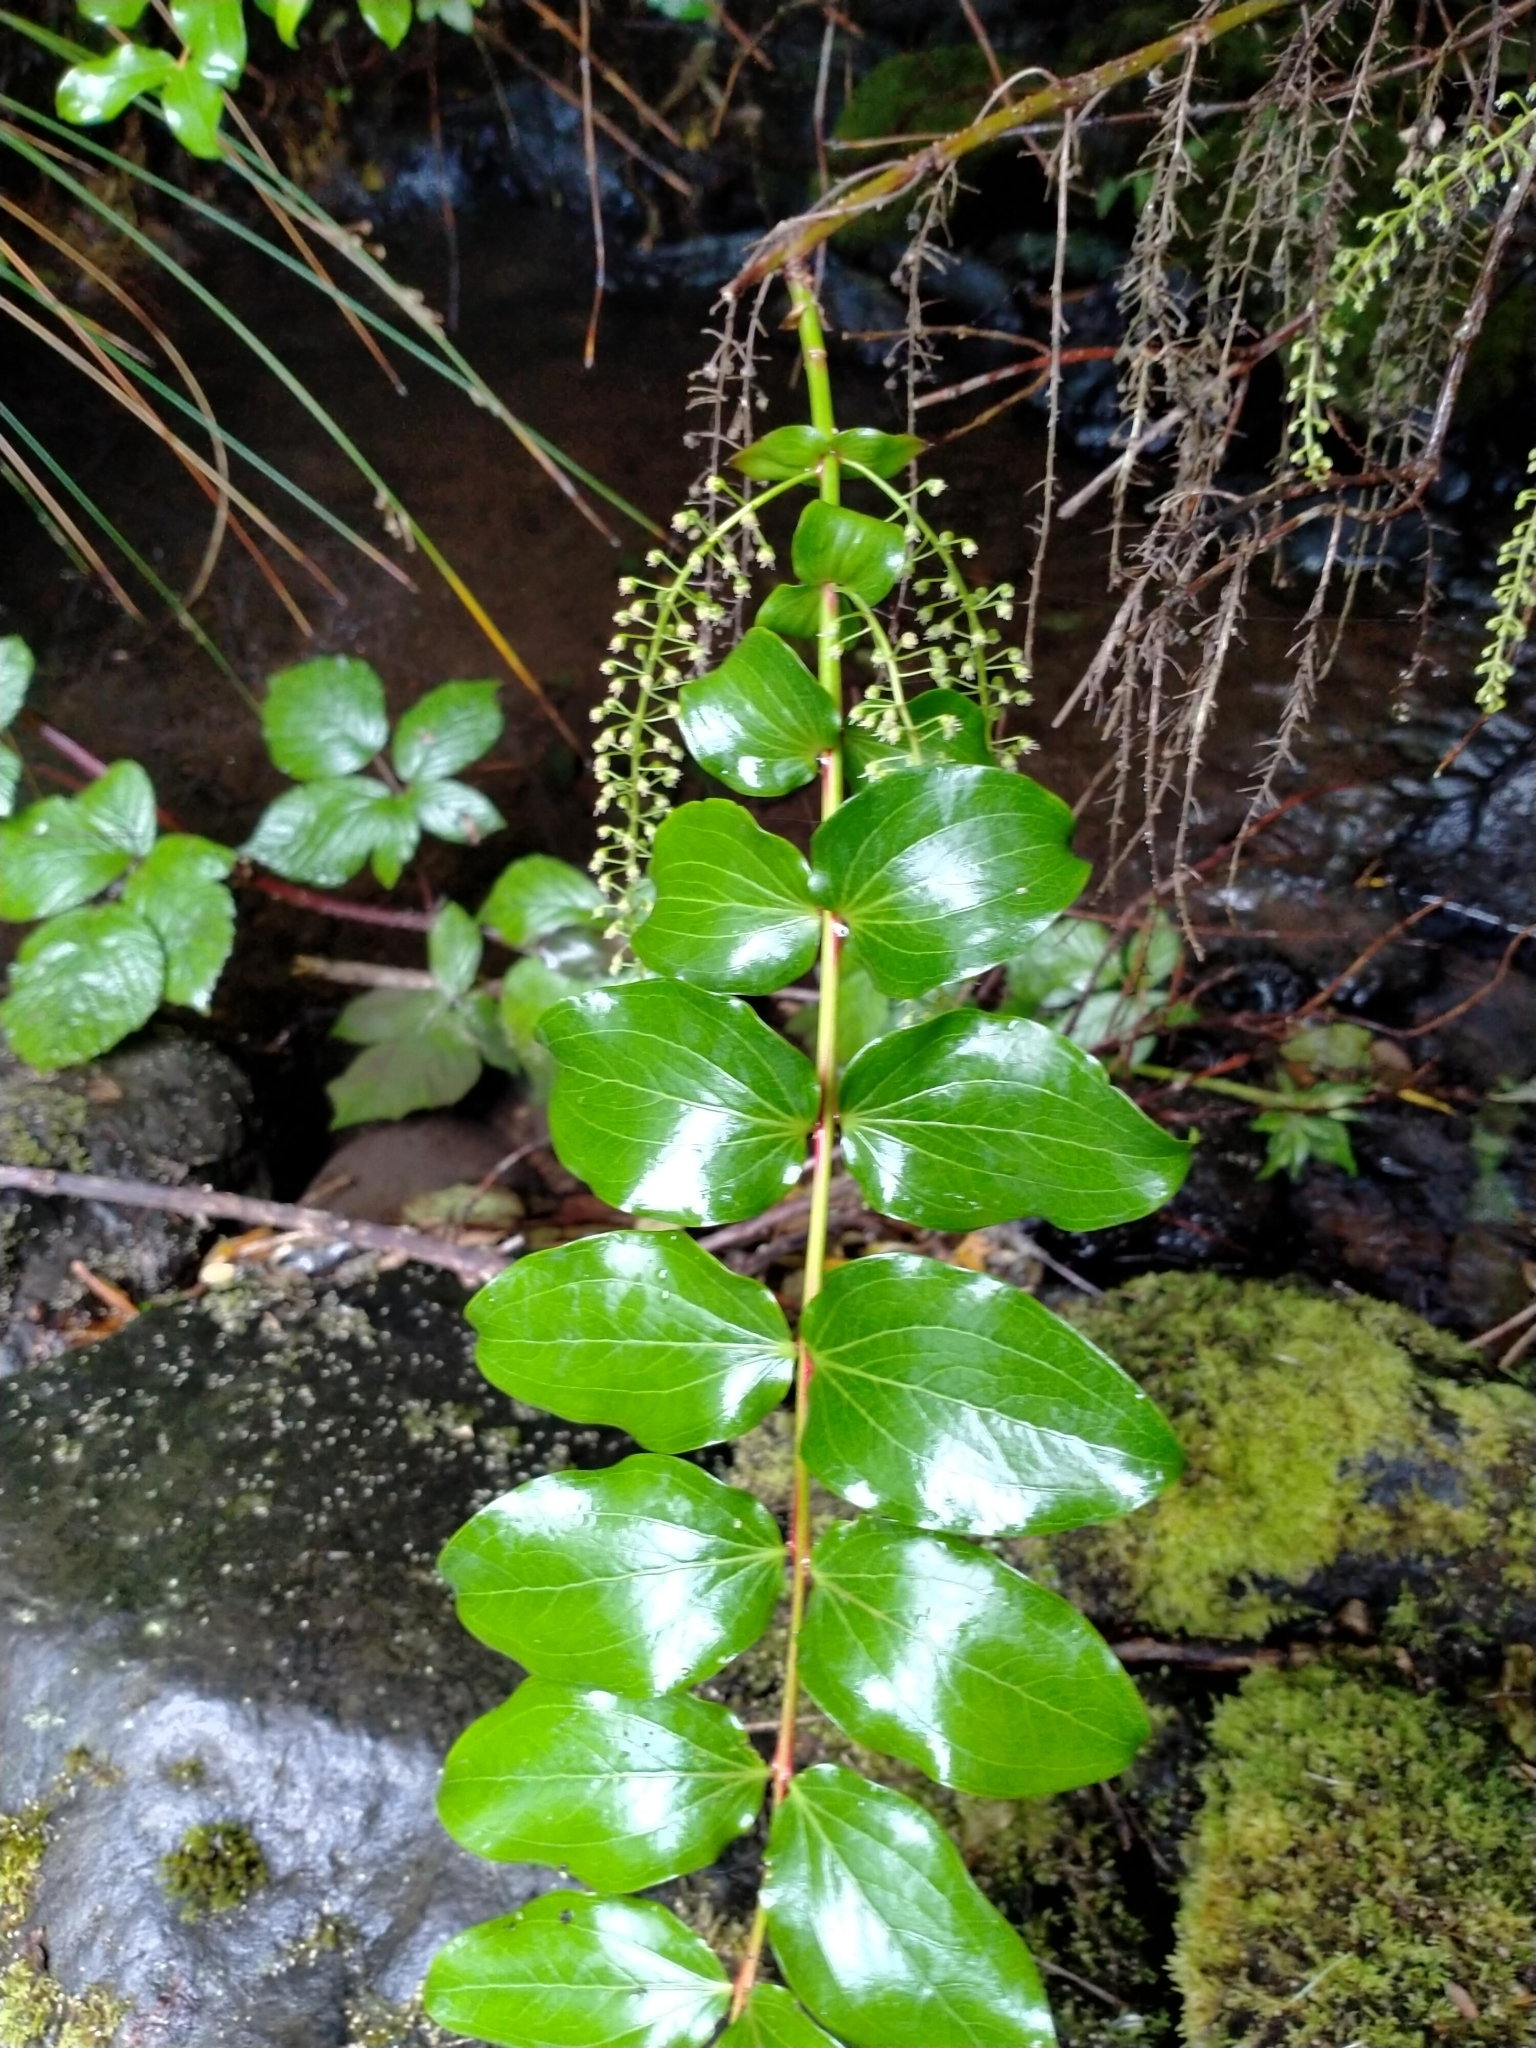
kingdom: Plantae
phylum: Tracheophyta
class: Magnoliopsida
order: Cucurbitales
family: Coriariaceae
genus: Coriaria
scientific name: Coriaria arborea
